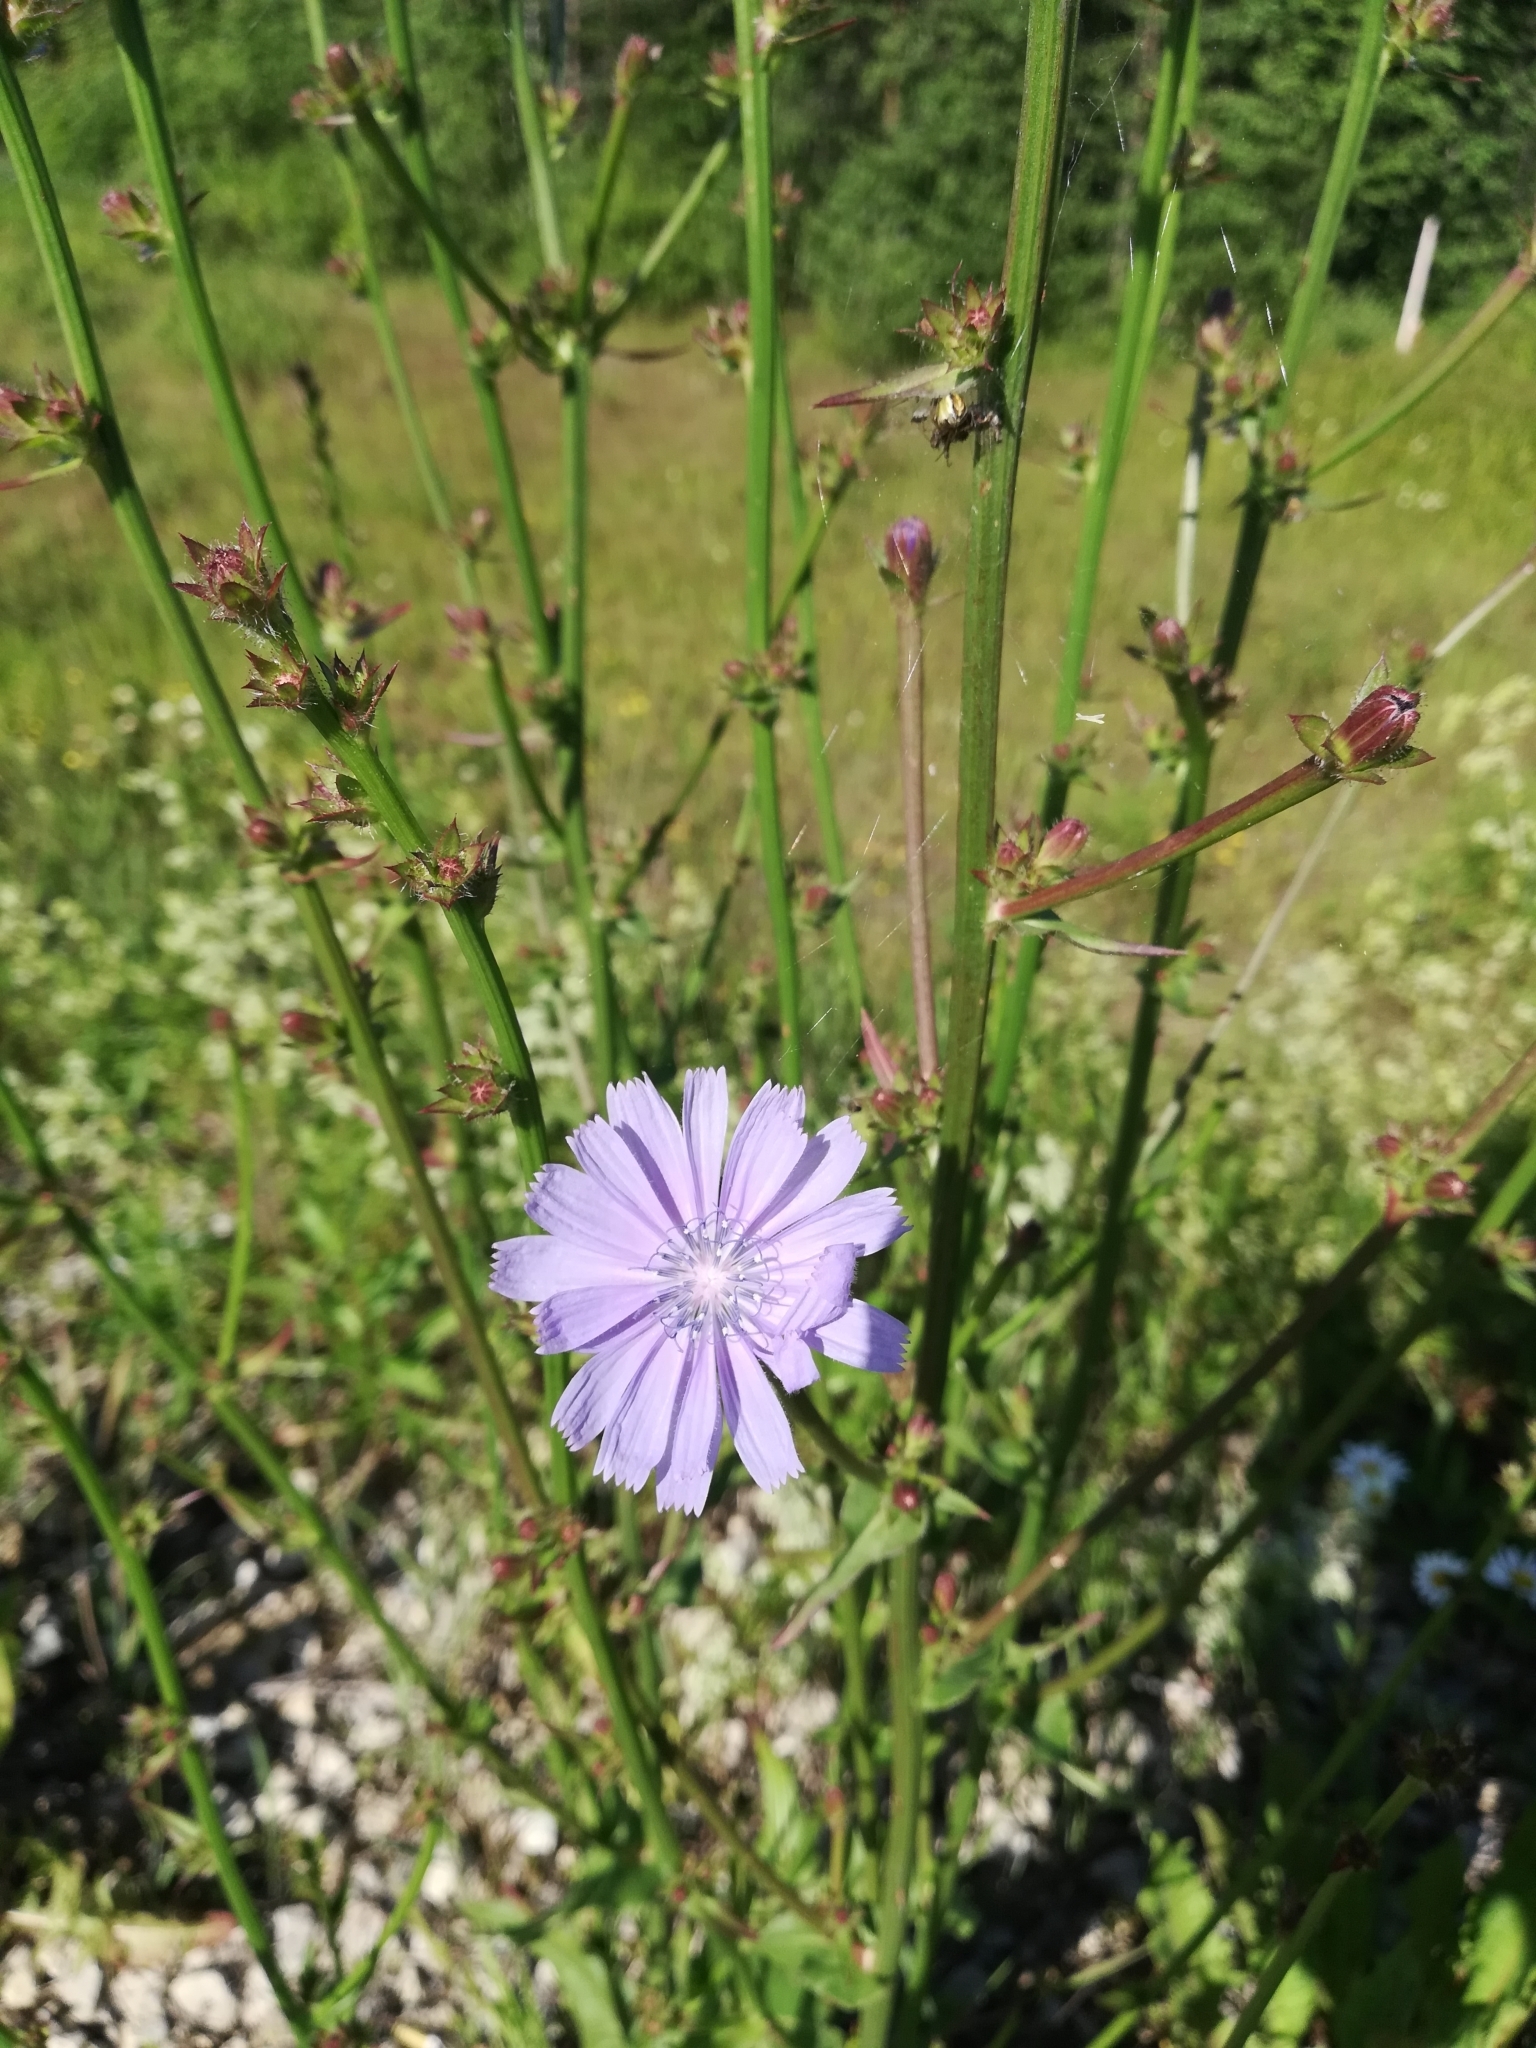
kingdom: Plantae
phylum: Tracheophyta
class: Magnoliopsida
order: Asterales
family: Asteraceae
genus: Cichorium
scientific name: Cichorium intybus
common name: Chicory
